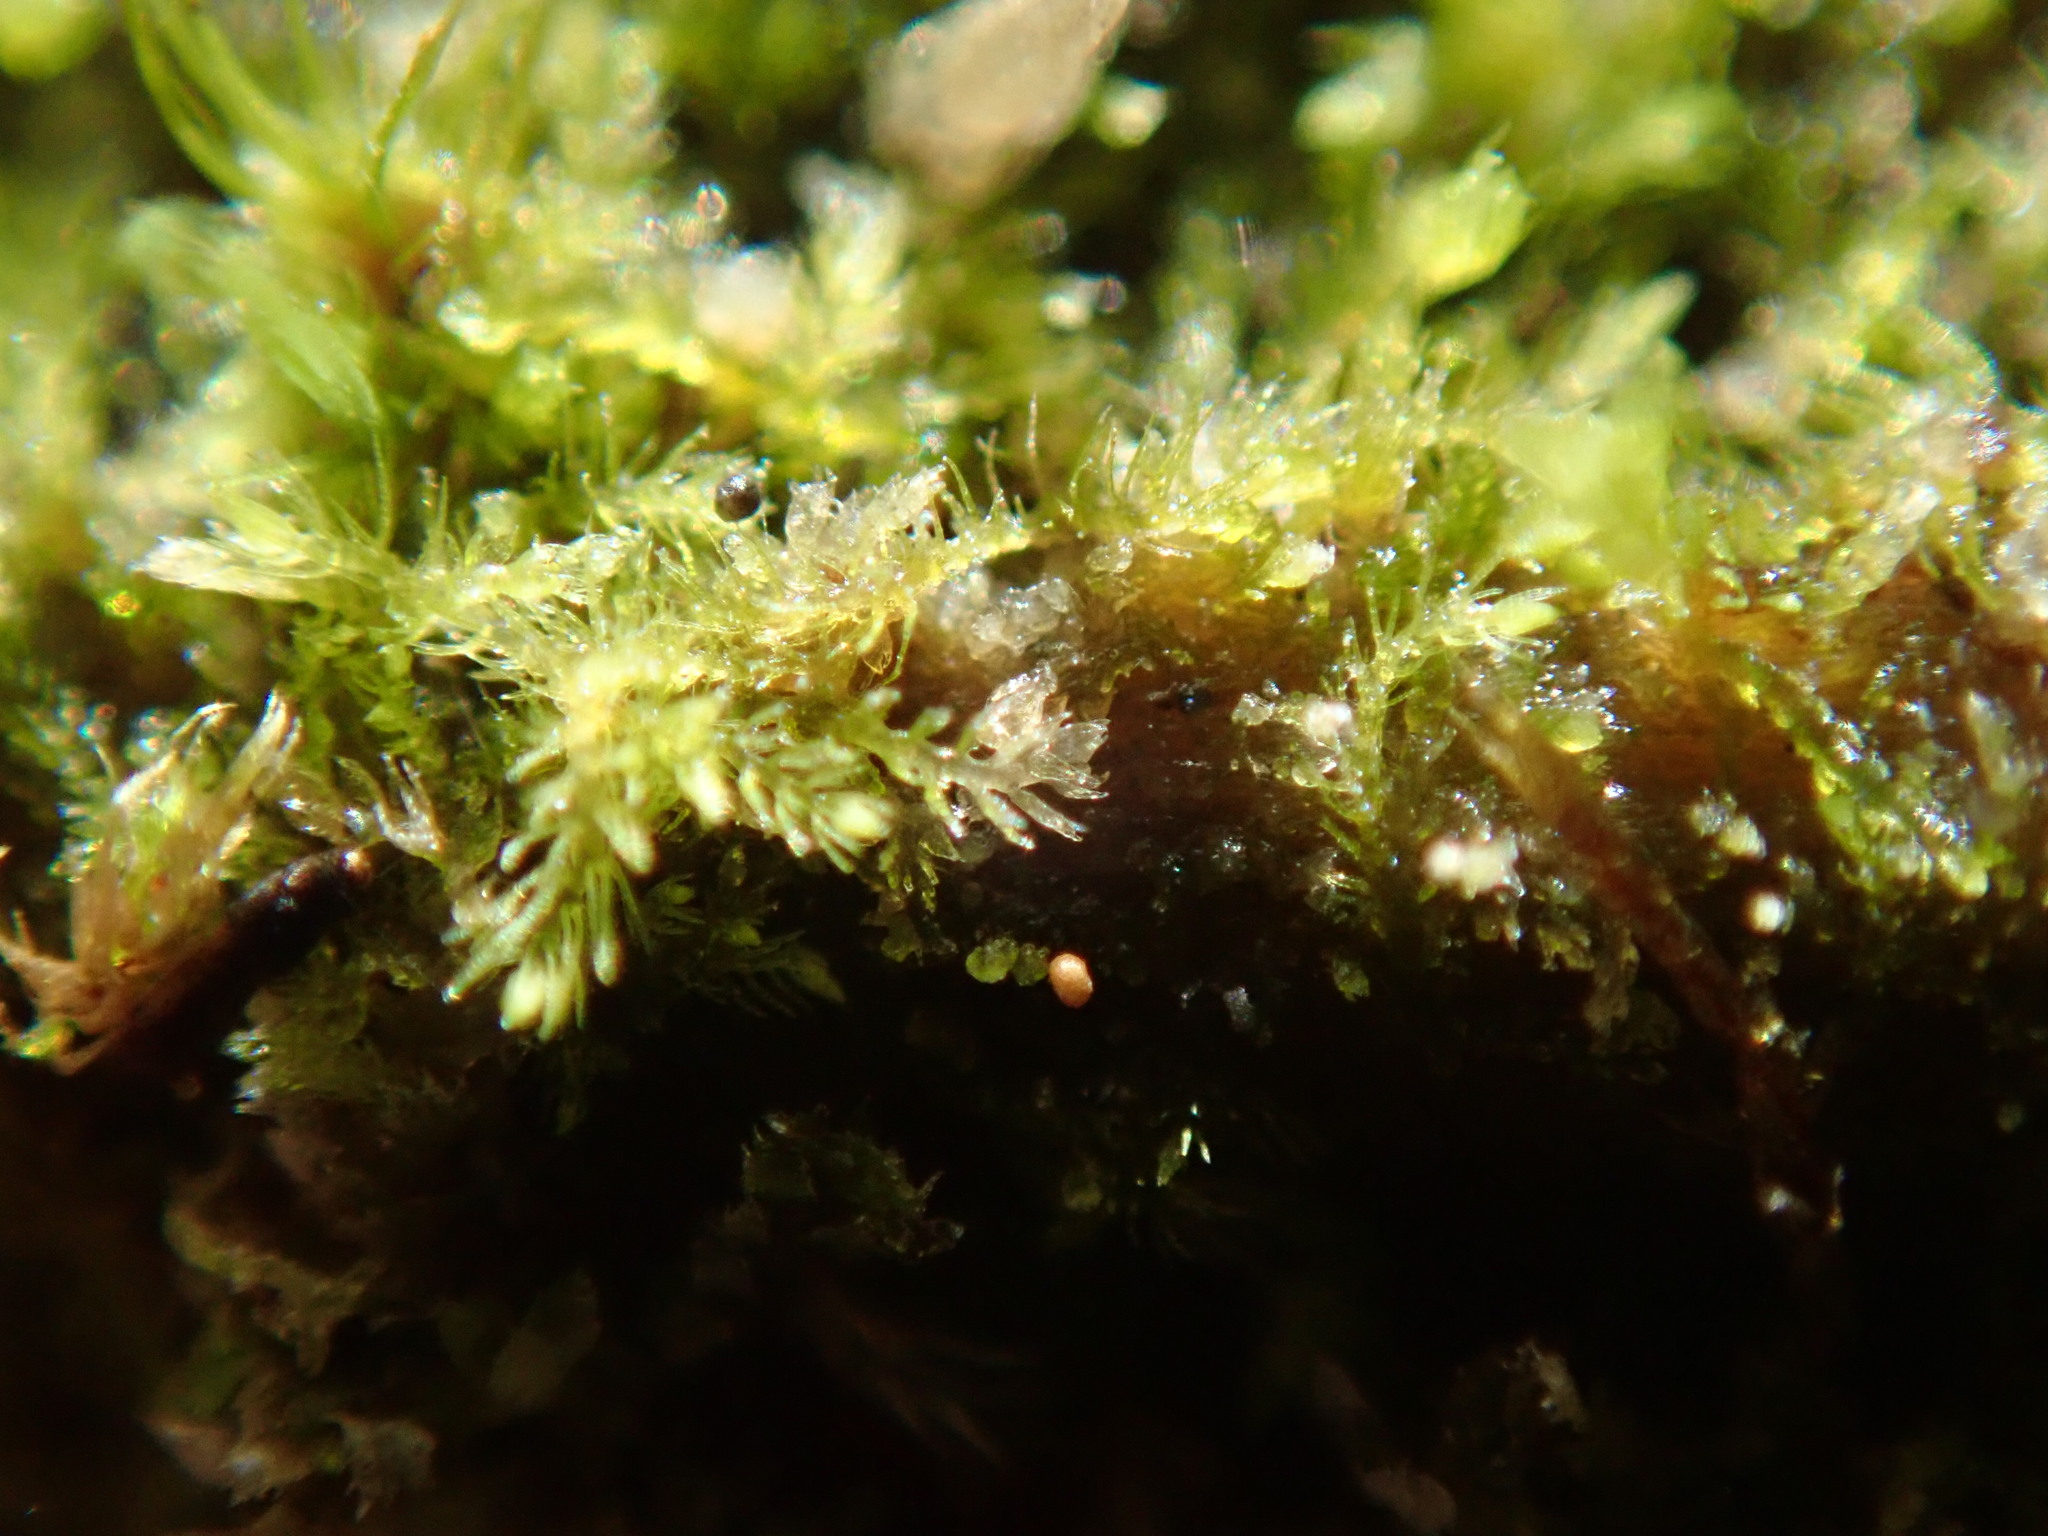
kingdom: Plantae
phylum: Marchantiophyta
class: Jungermanniopsida
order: Jungermanniales
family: Blepharostomataceae
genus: Blepharostoma
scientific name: Blepharostoma trichophyllum
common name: Hairy threadwort
